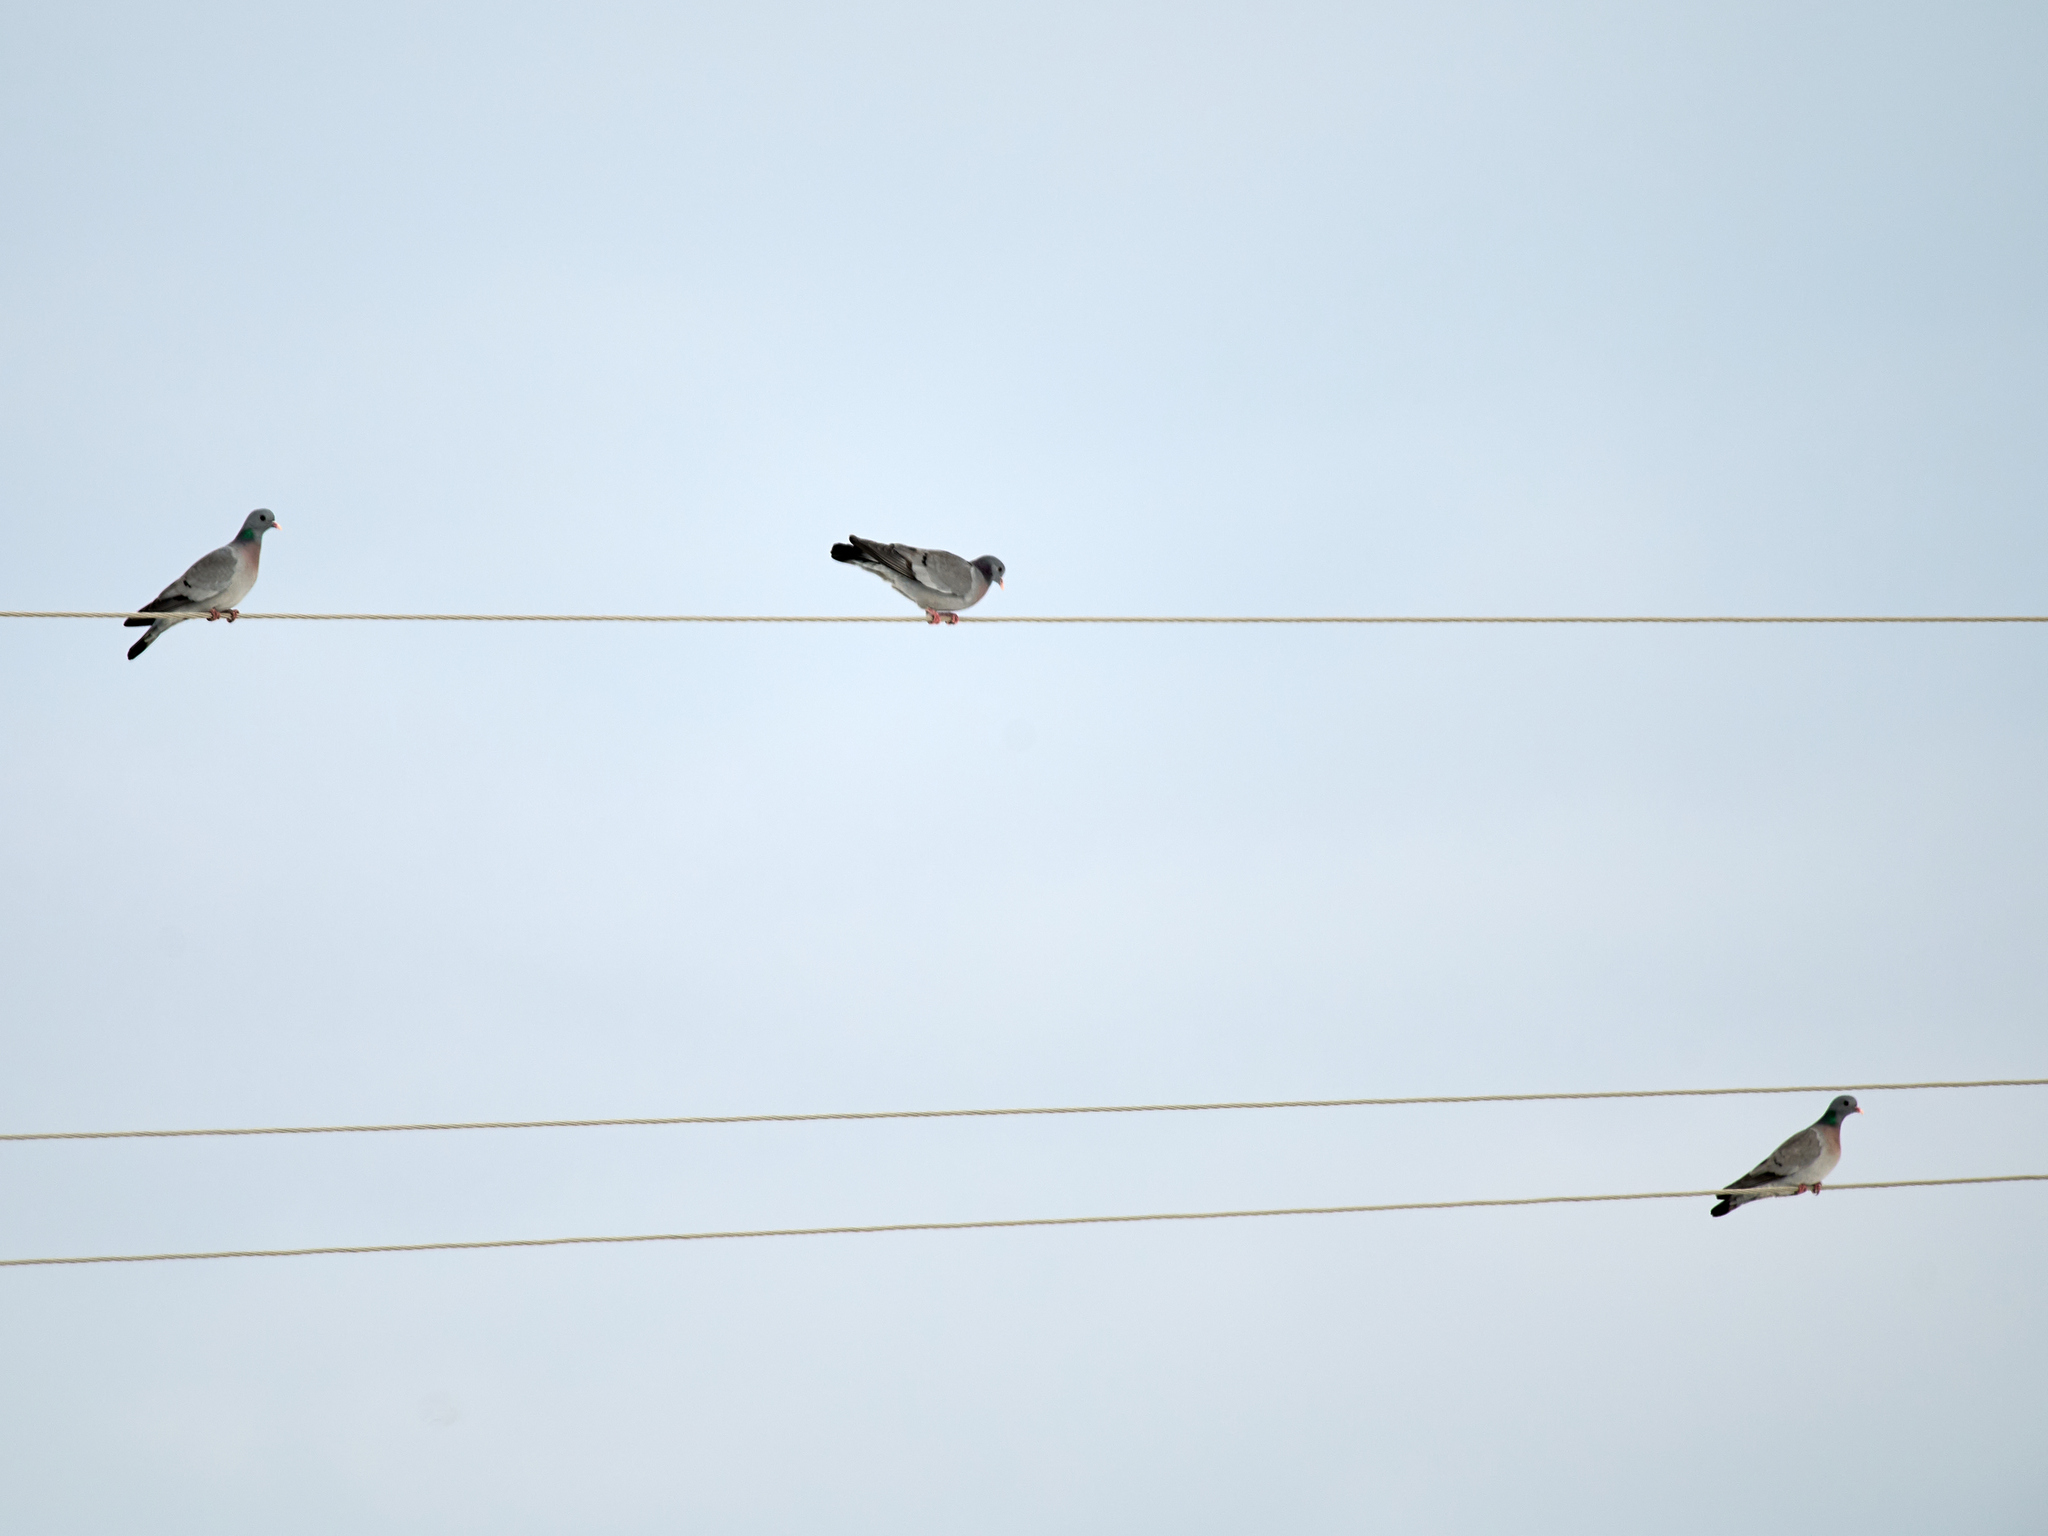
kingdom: Animalia
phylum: Chordata
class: Aves
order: Columbiformes
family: Columbidae
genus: Columba
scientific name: Columba oenas
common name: Stock dove
